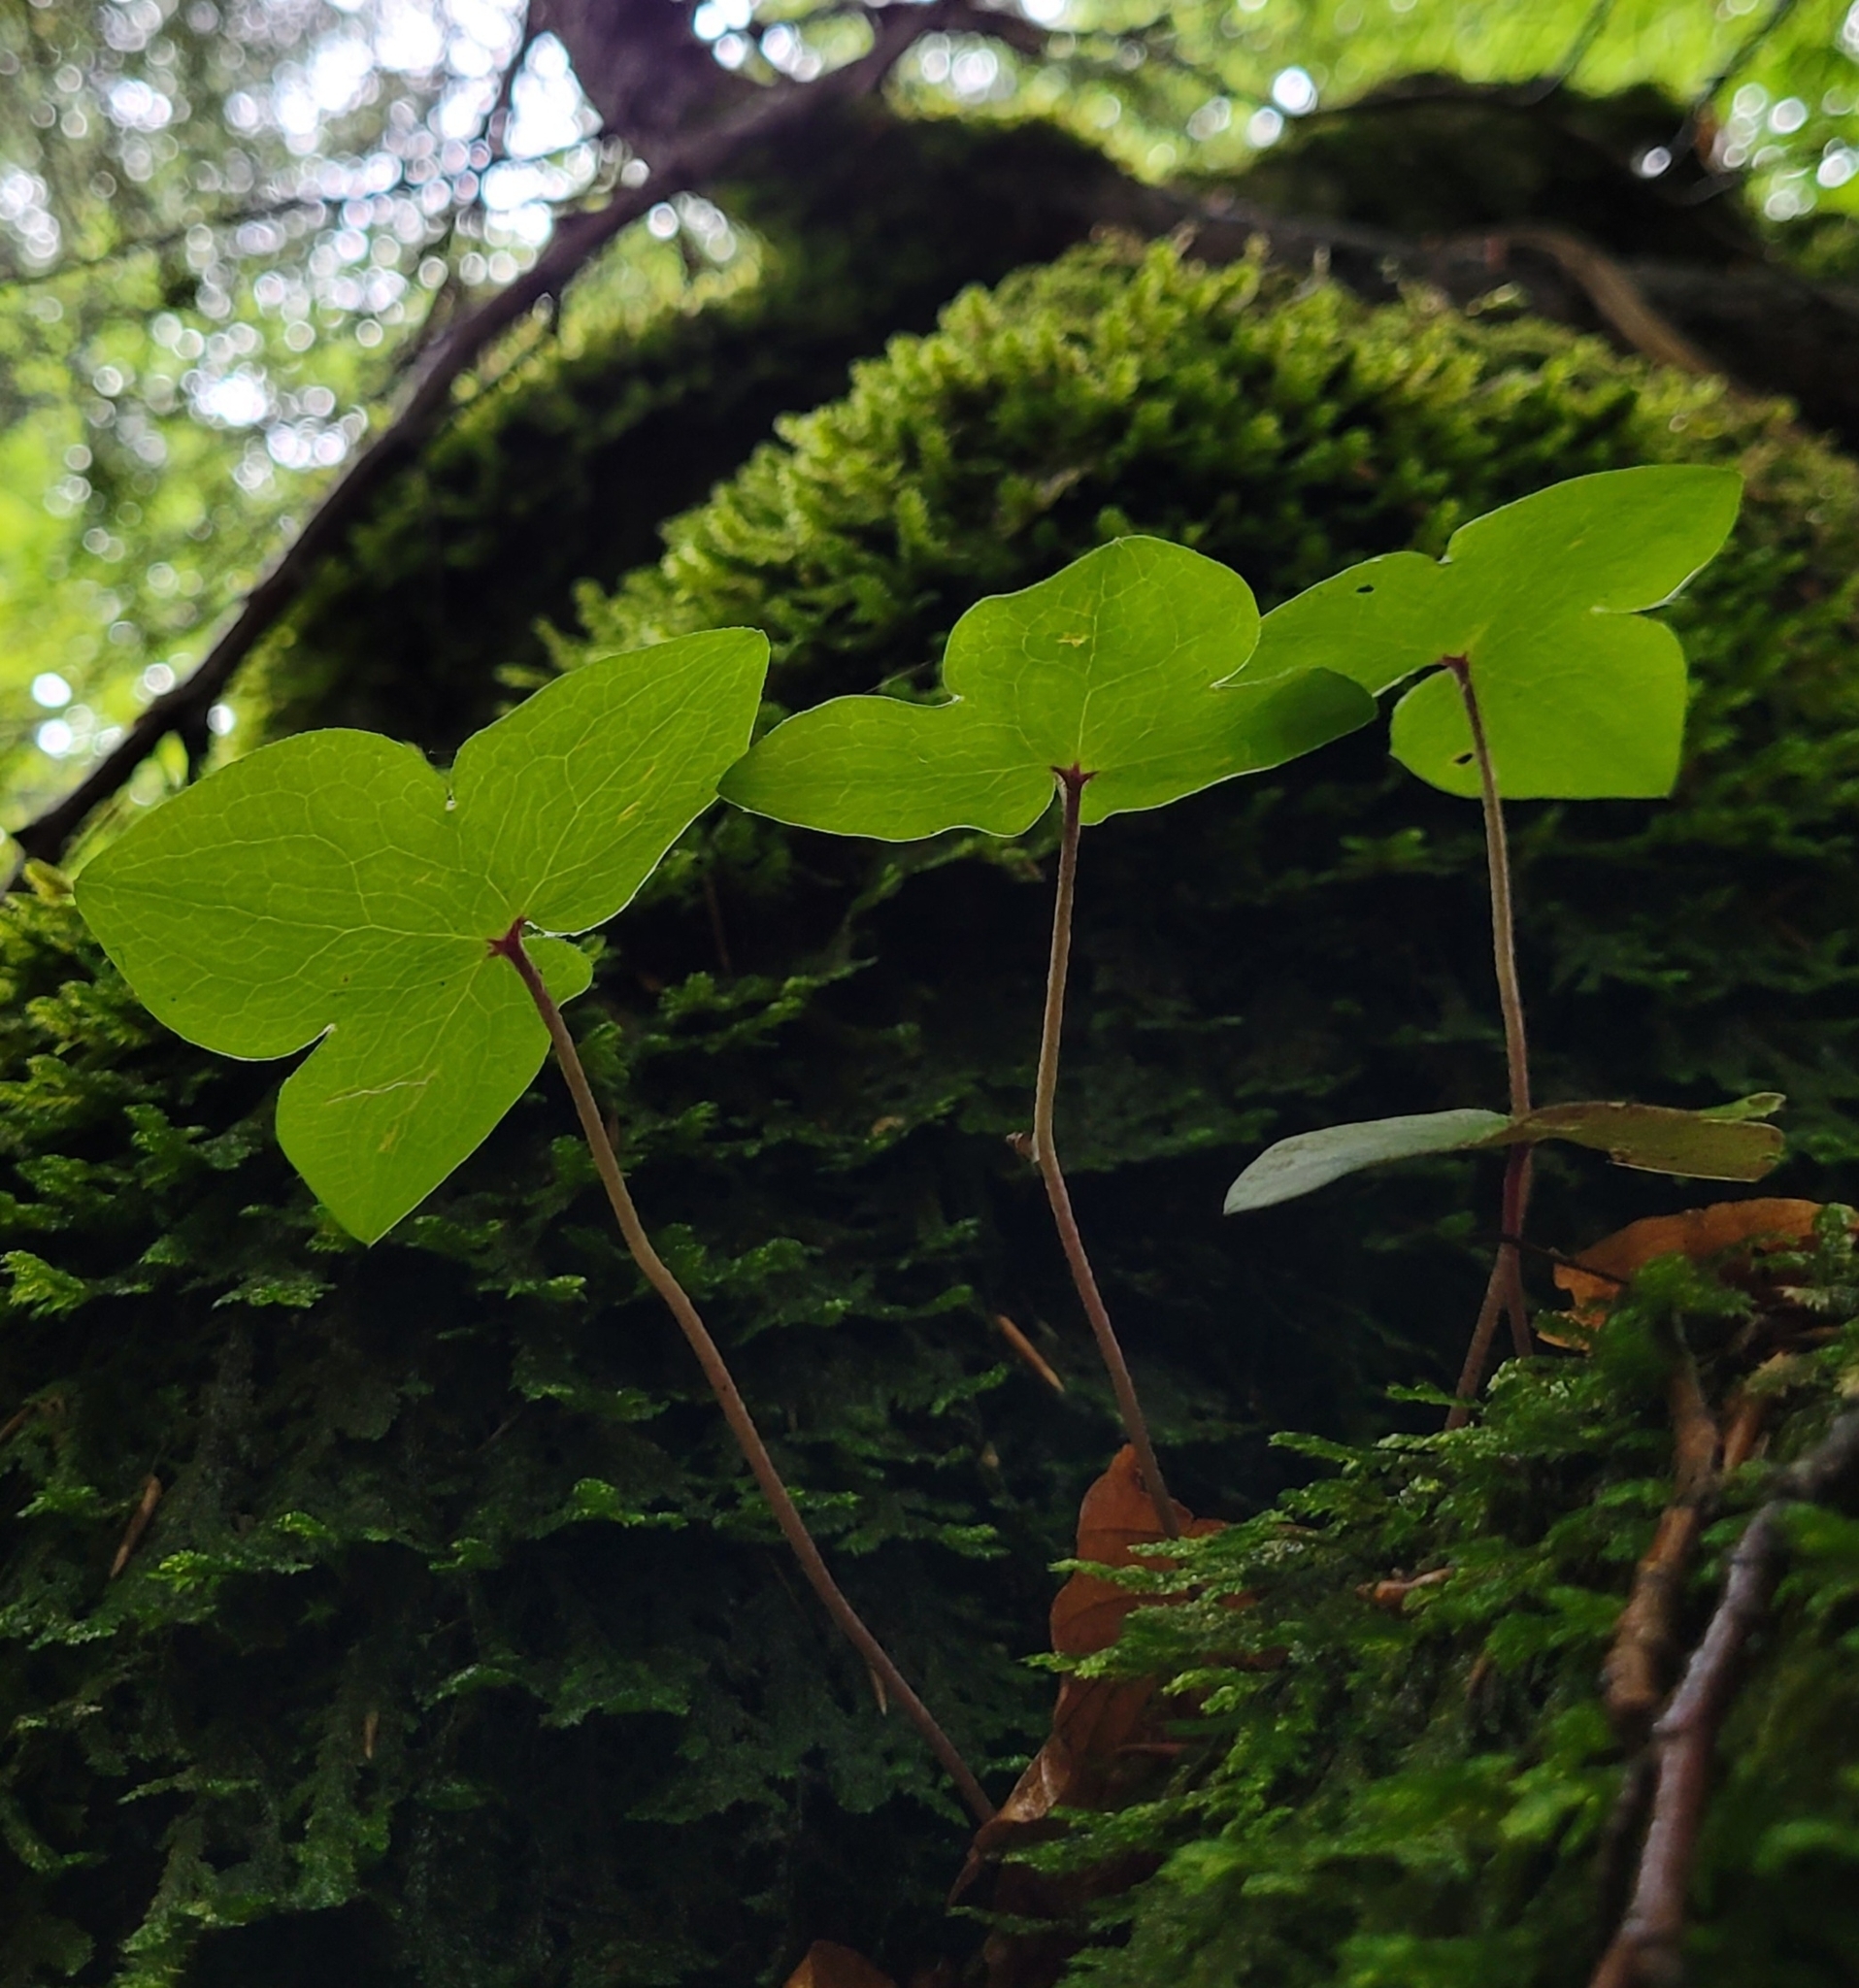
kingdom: Plantae
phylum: Tracheophyta
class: Magnoliopsida
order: Ranunculales
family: Ranunculaceae
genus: Hepatica
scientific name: Hepatica nobilis
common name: Liverleaf
